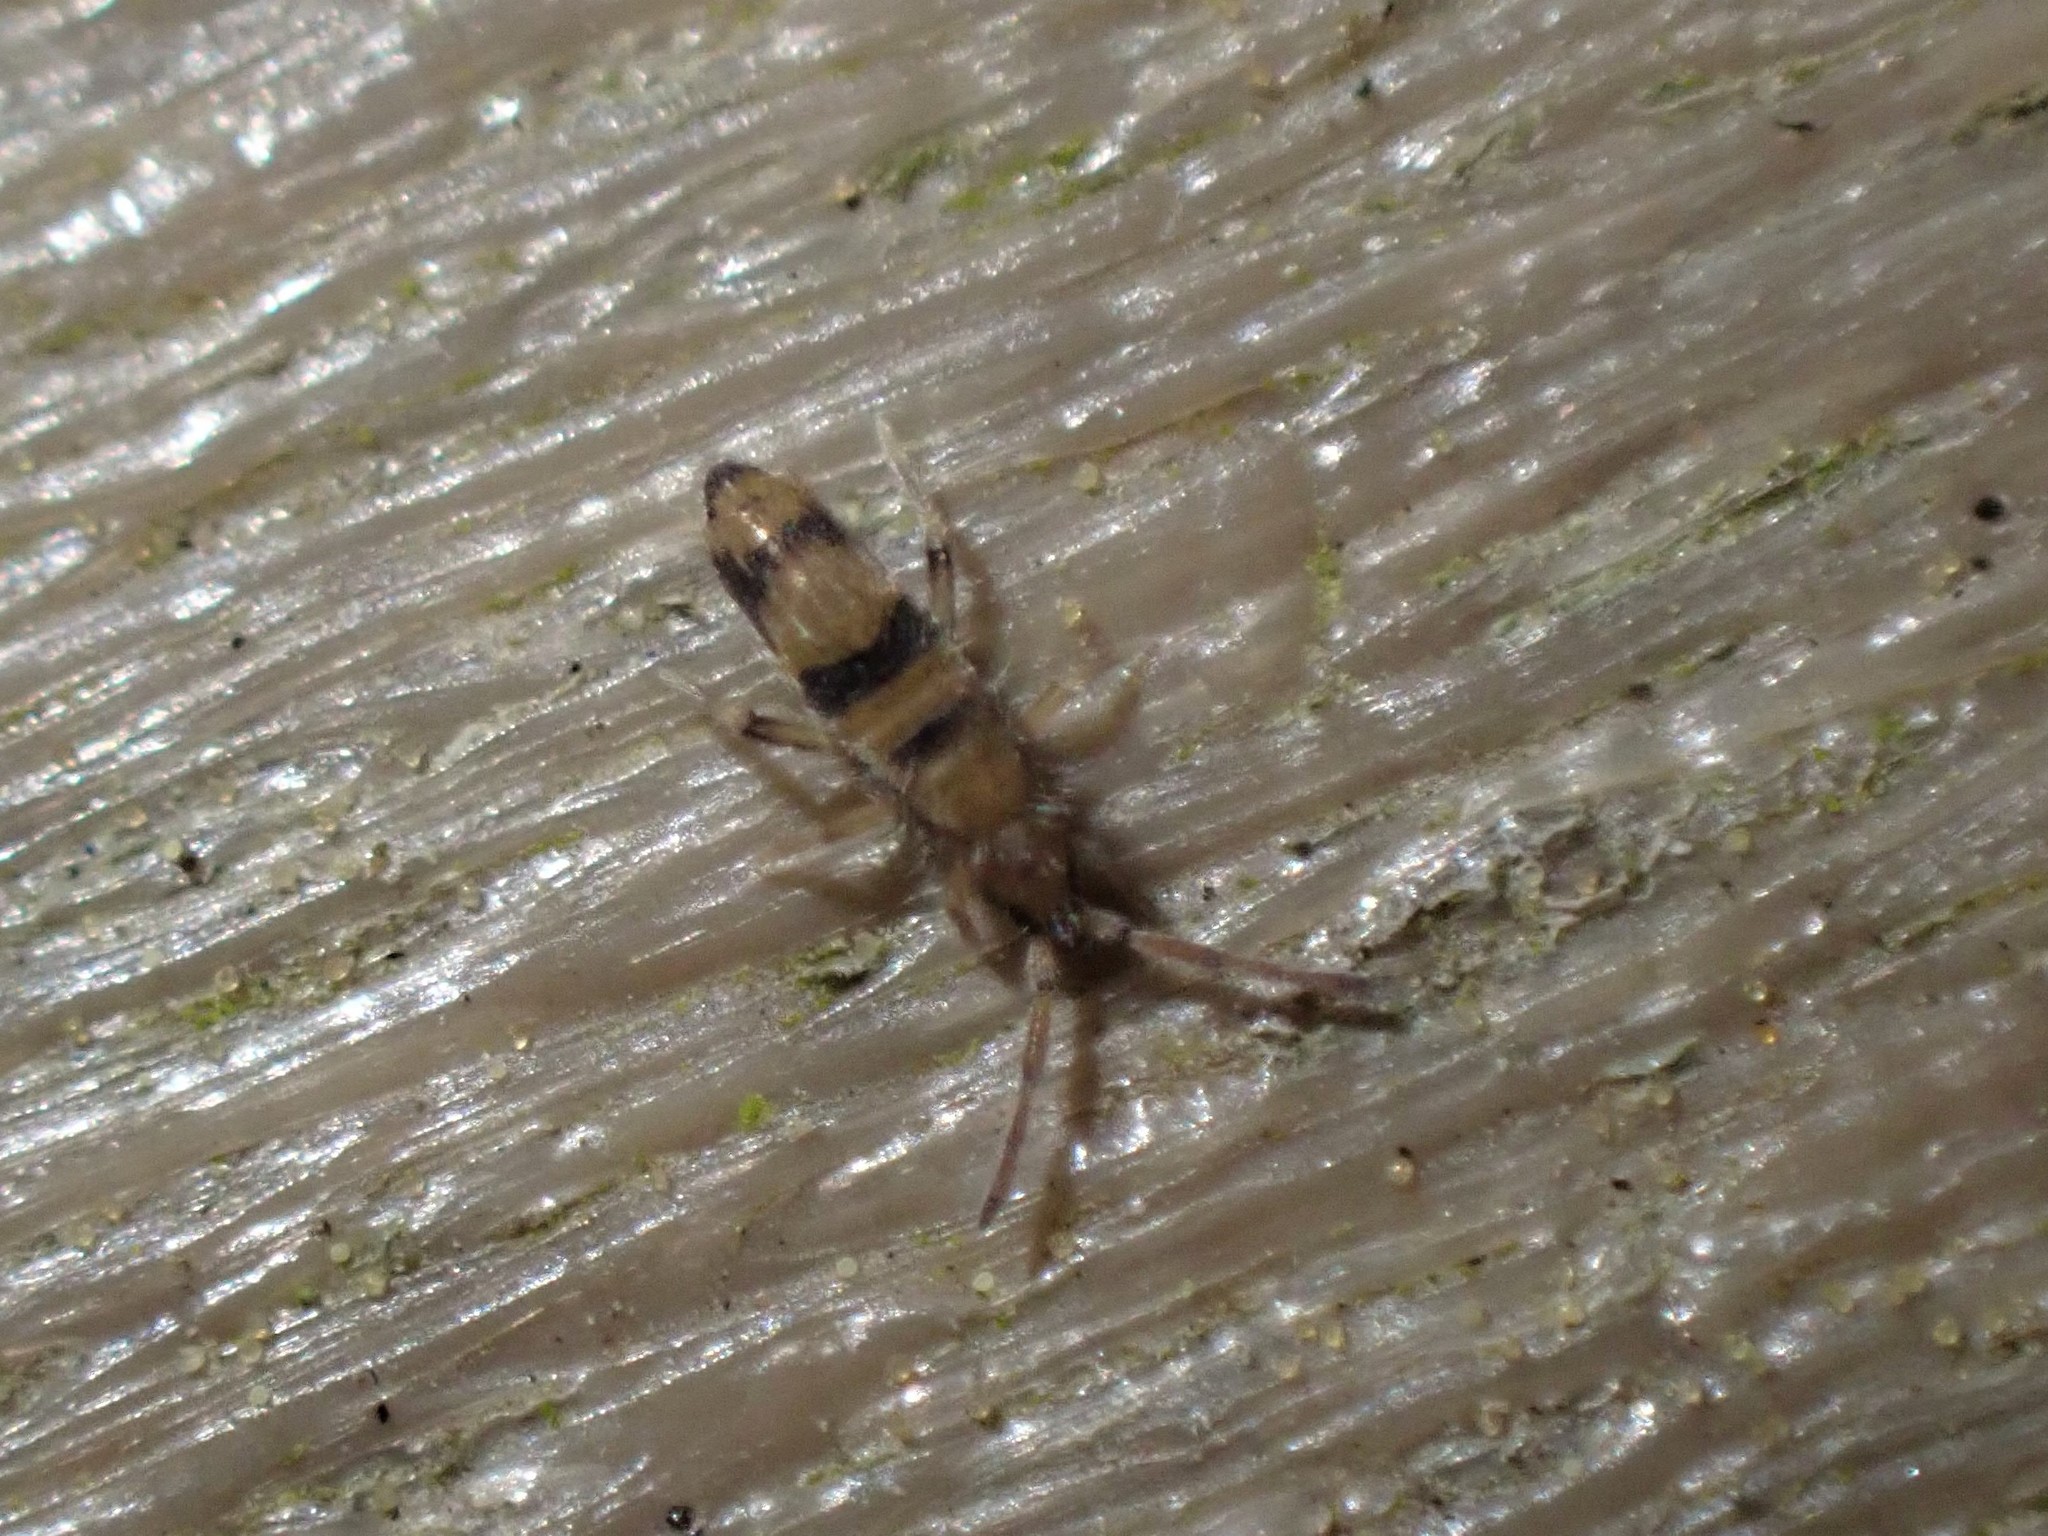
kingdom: Animalia
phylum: Arthropoda
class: Collembola
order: Entomobryomorpha
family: Entomobryidae
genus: Entomobrya
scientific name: Entomobrya triangularis
